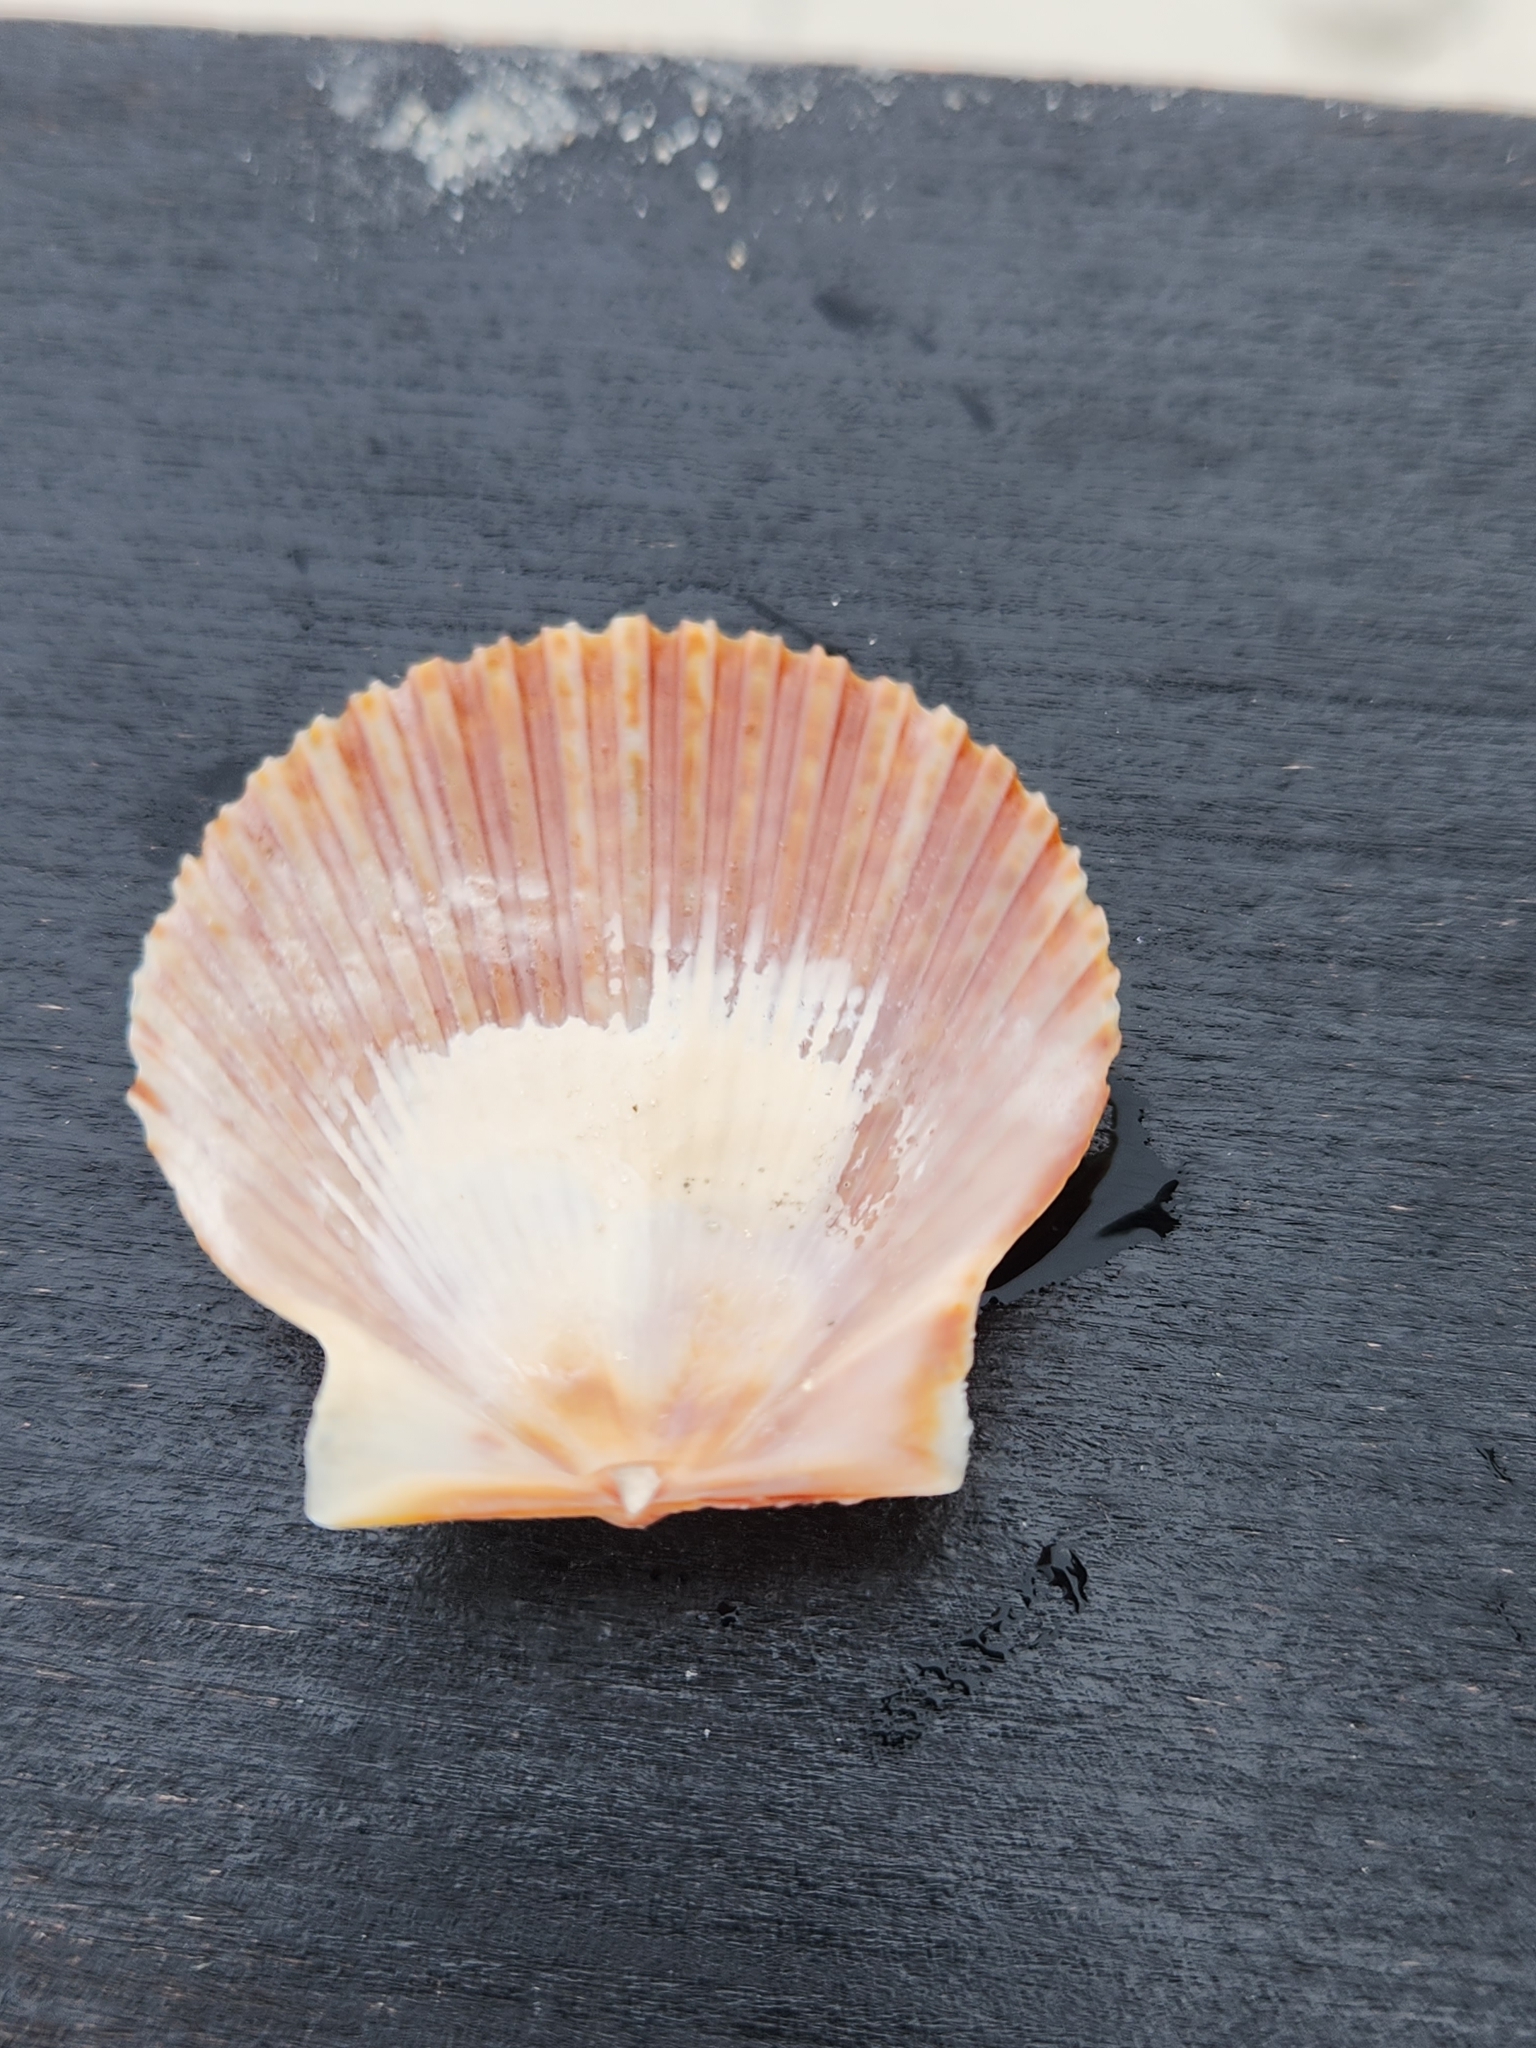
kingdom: Animalia
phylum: Mollusca
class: Bivalvia
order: Pectinida
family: Pectinidae
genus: Argopecten
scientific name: Argopecten irradians
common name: Atlantic bay scallop
